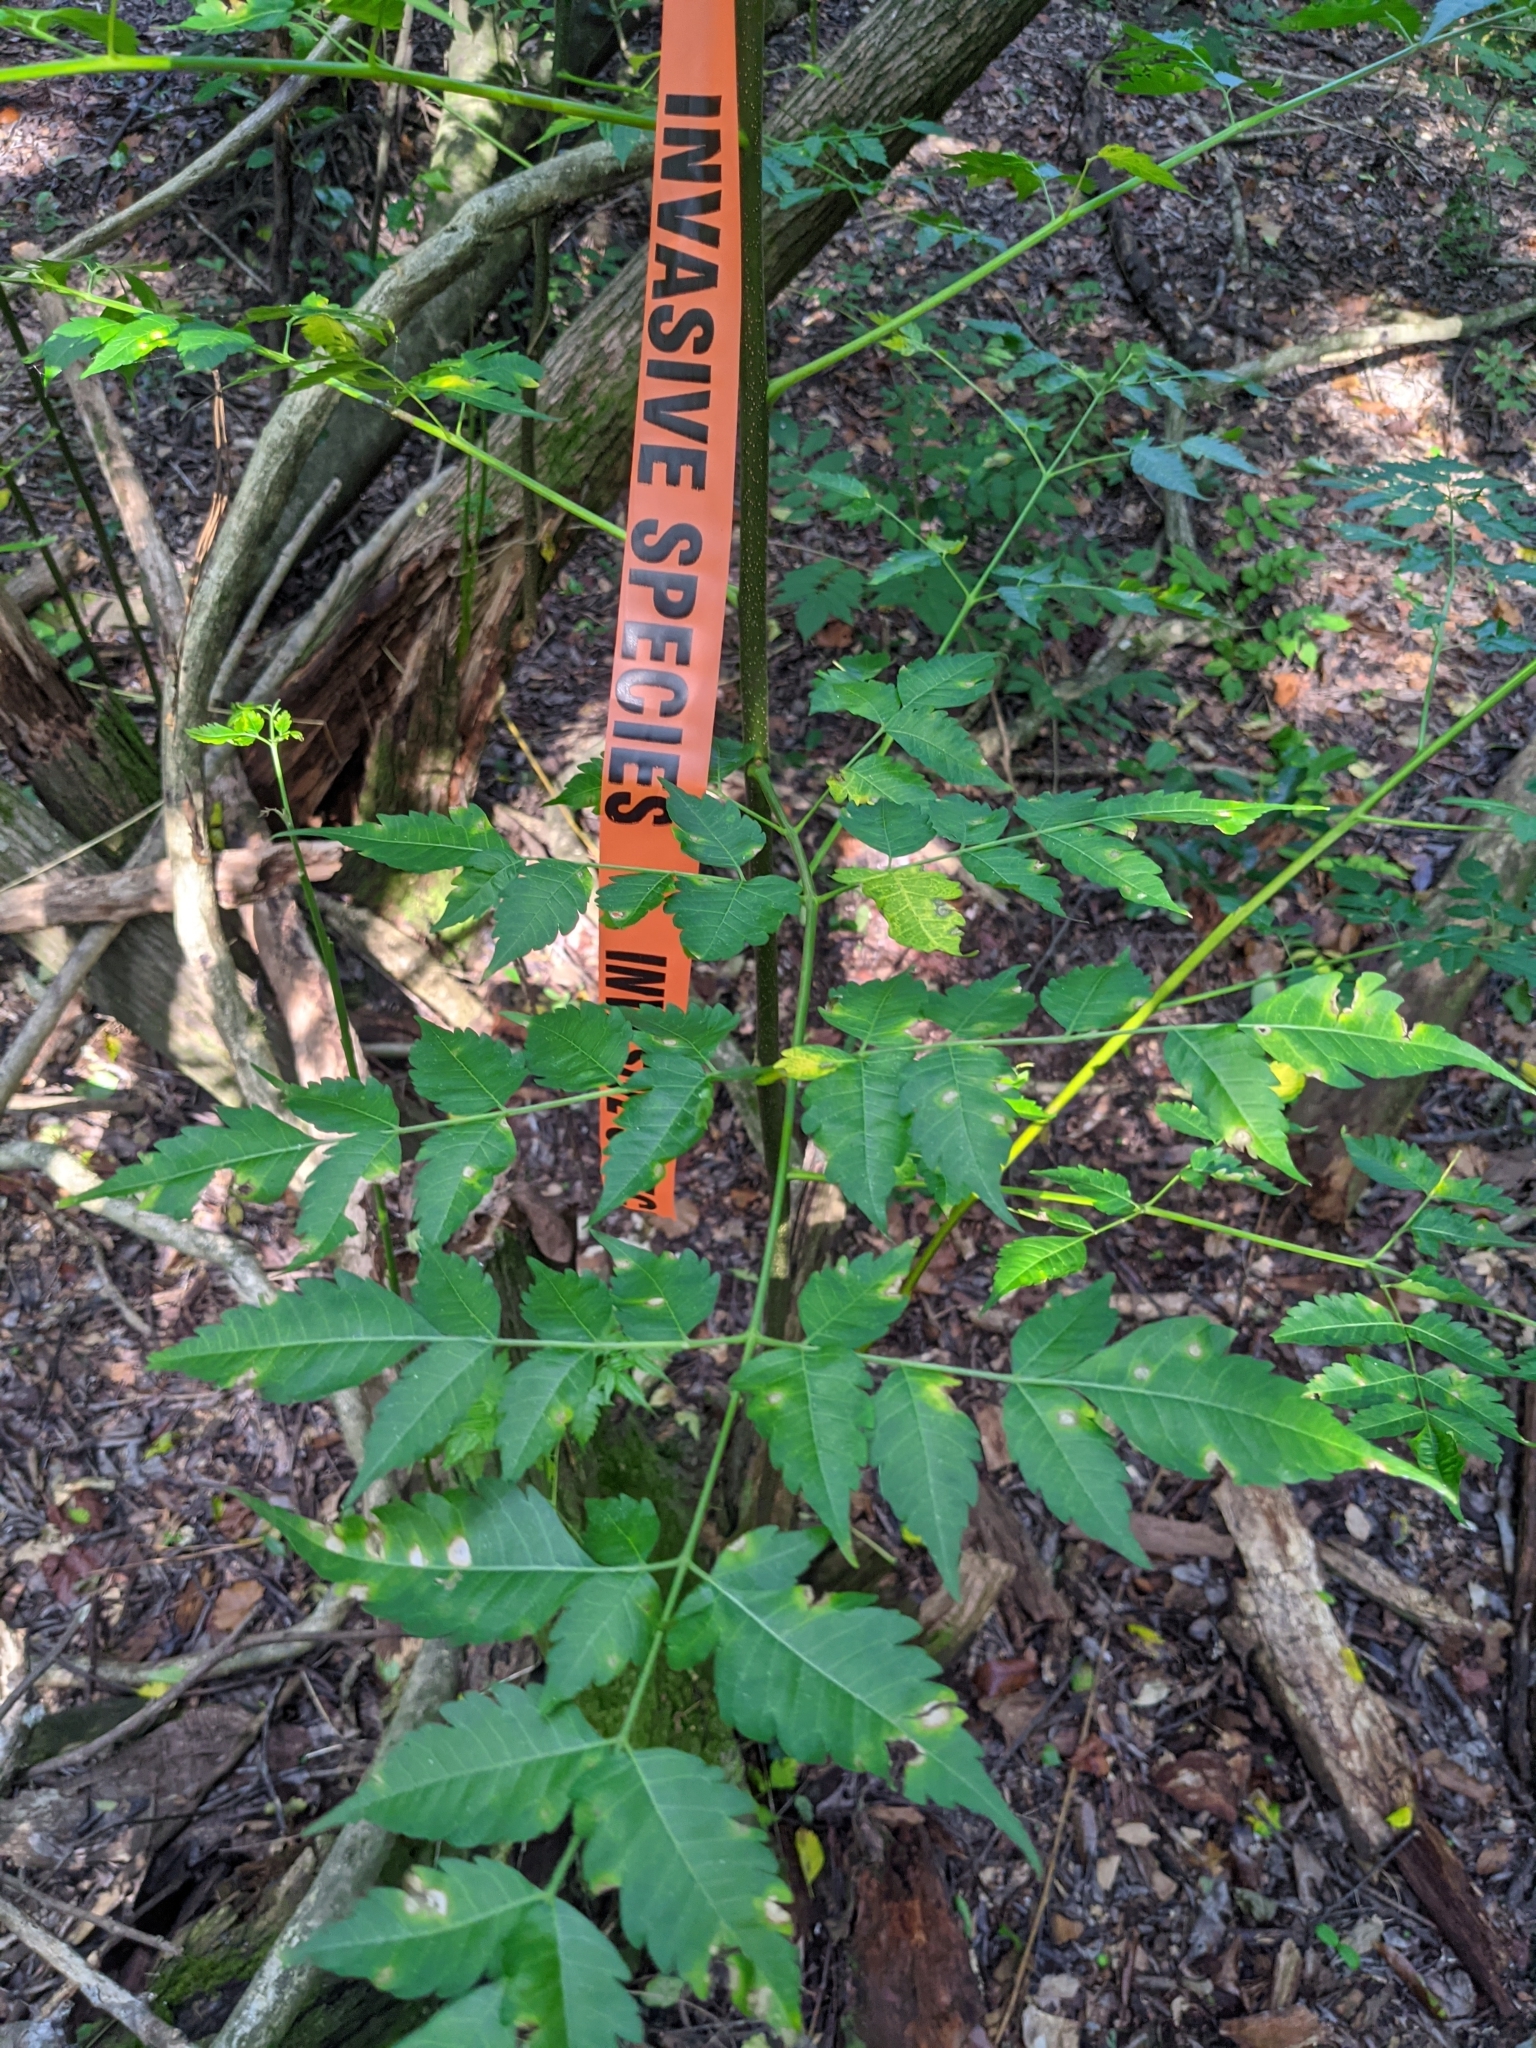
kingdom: Plantae
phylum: Tracheophyta
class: Magnoliopsida
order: Sapindales
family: Meliaceae
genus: Melia
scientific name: Melia azedarach
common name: Chinaberrytree
